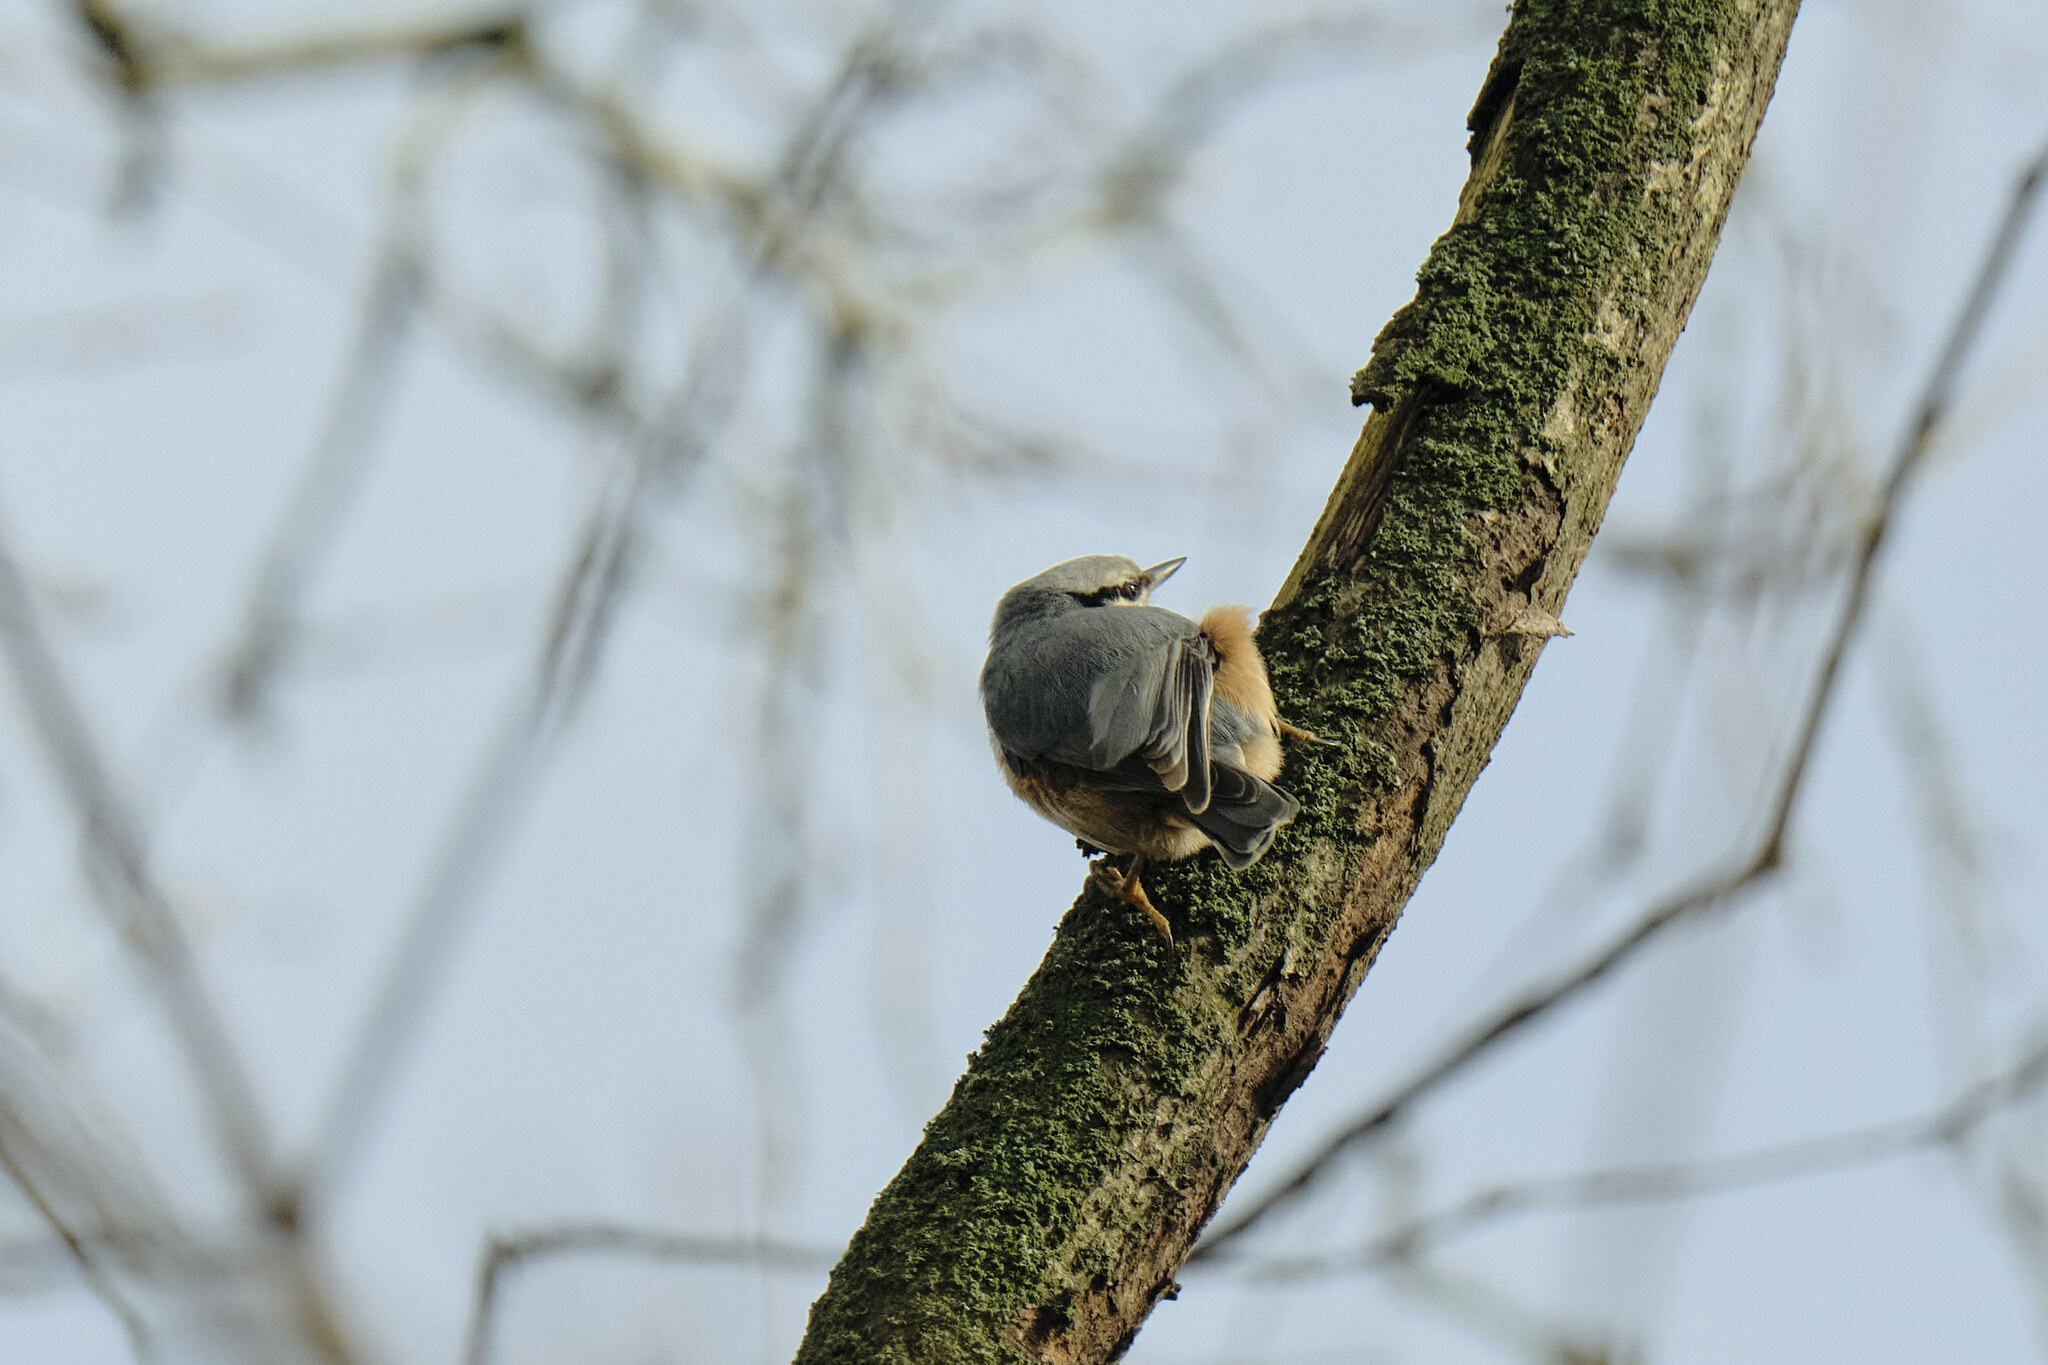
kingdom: Animalia
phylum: Chordata
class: Aves
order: Passeriformes
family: Sittidae
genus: Sitta
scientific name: Sitta europaea
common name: Eurasian nuthatch
